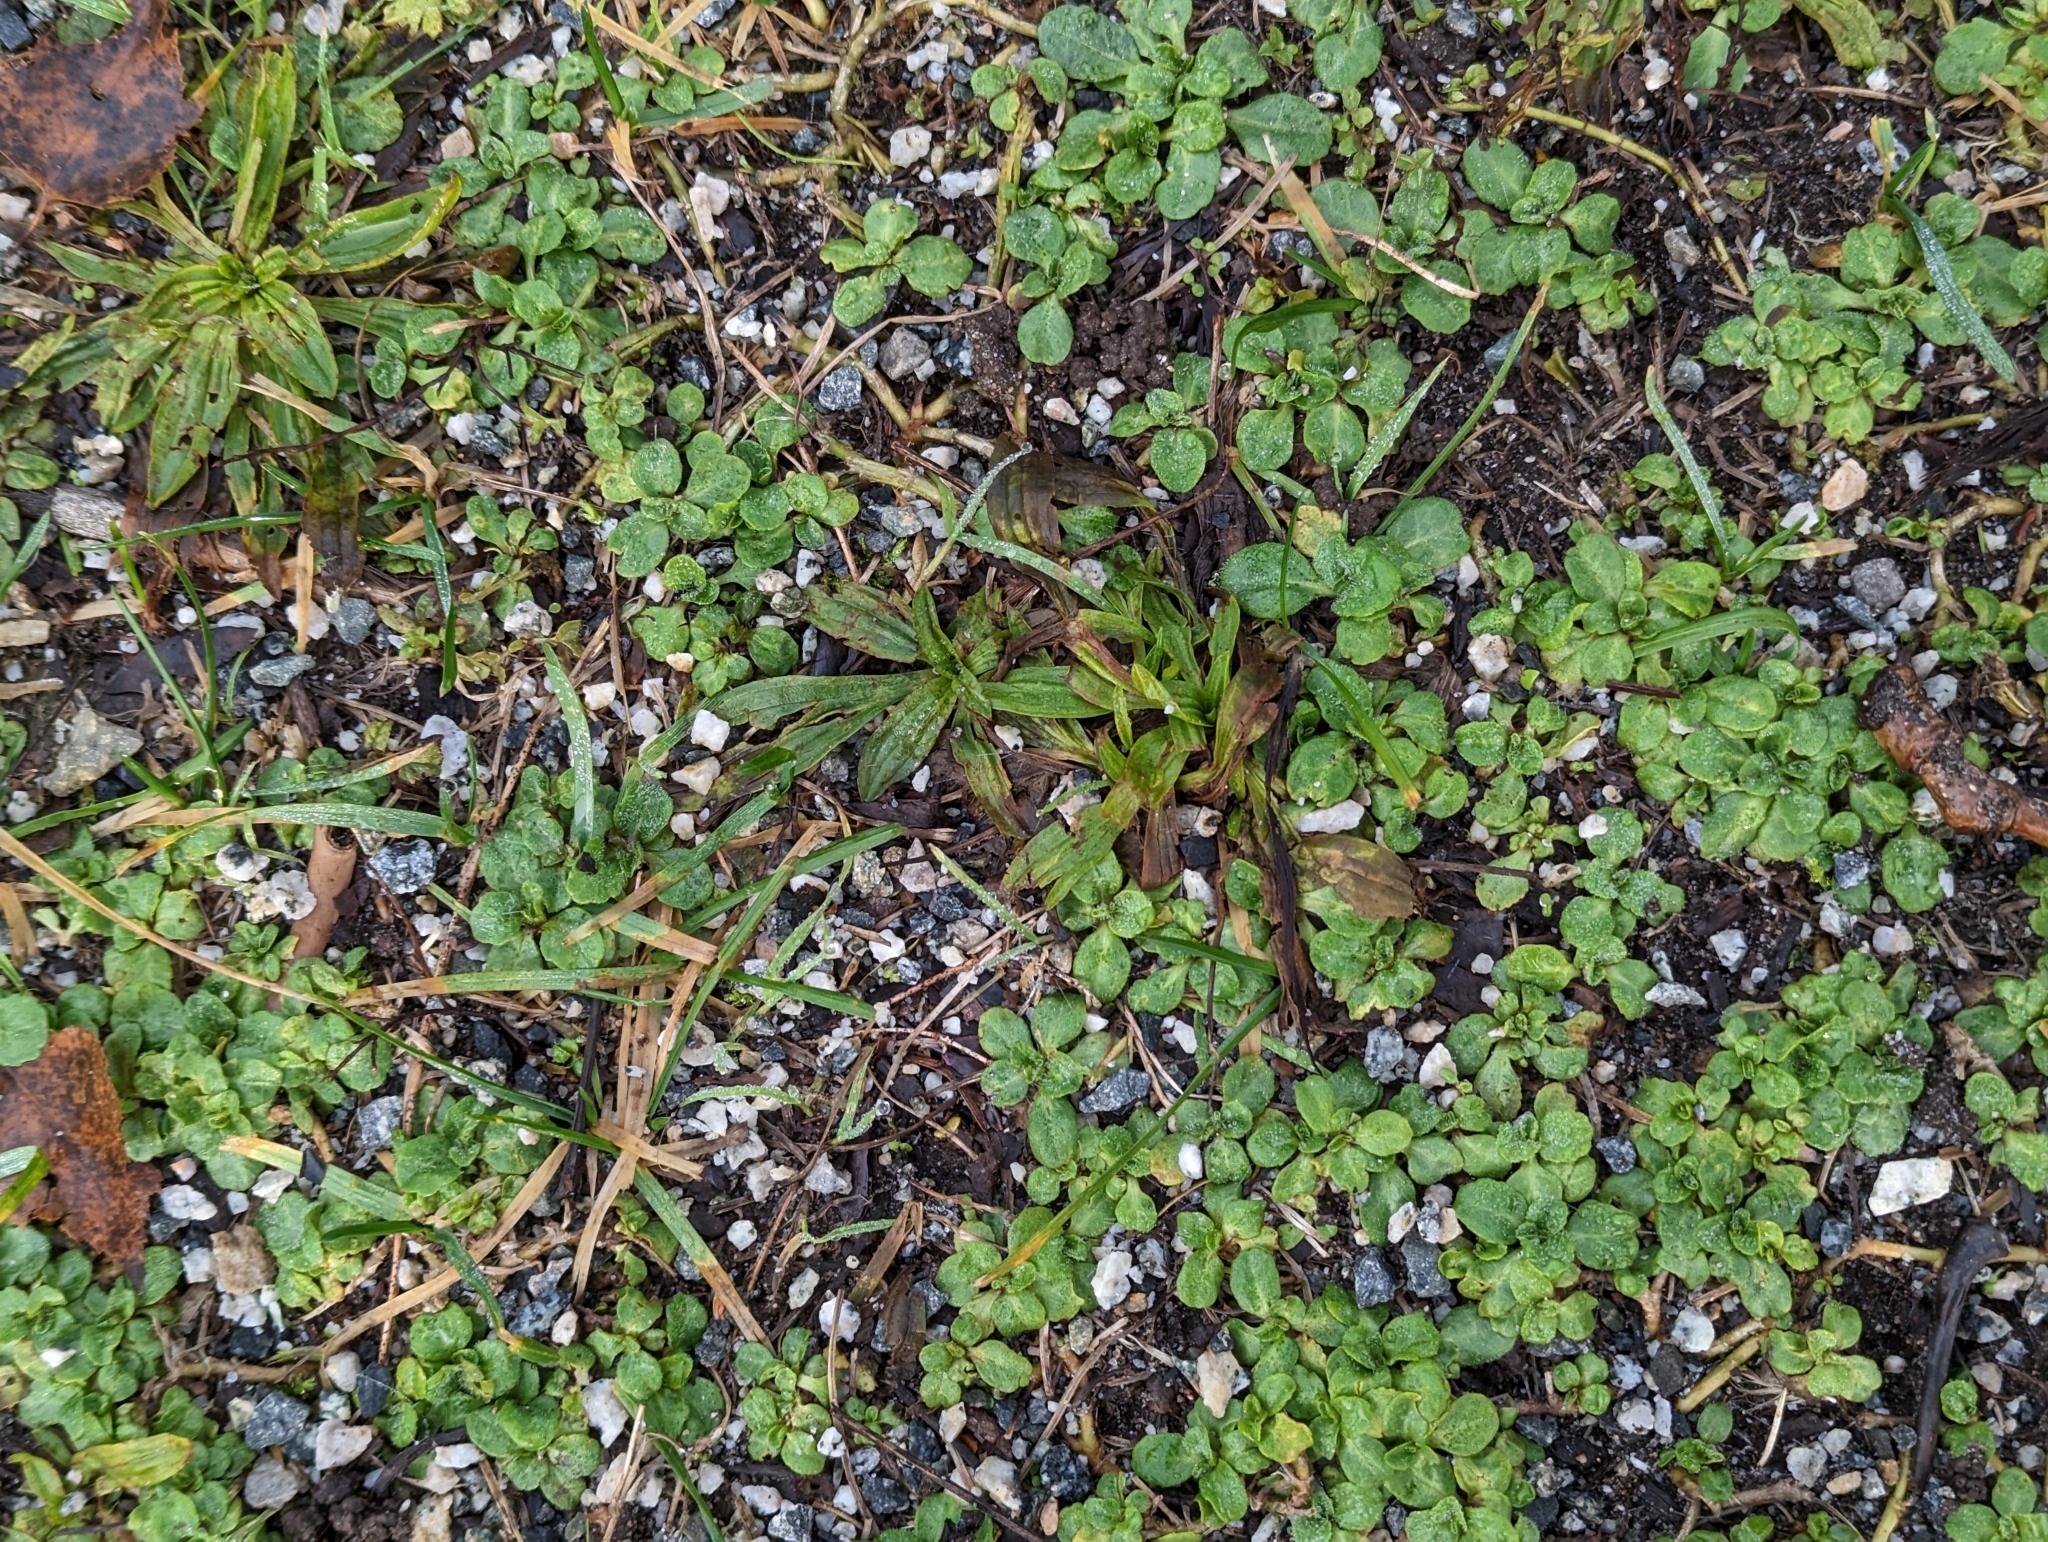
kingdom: Plantae
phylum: Tracheophyta
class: Magnoliopsida
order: Asterales
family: Asteraceae
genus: Bellis
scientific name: Bellis perennis
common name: Lawndaisy
